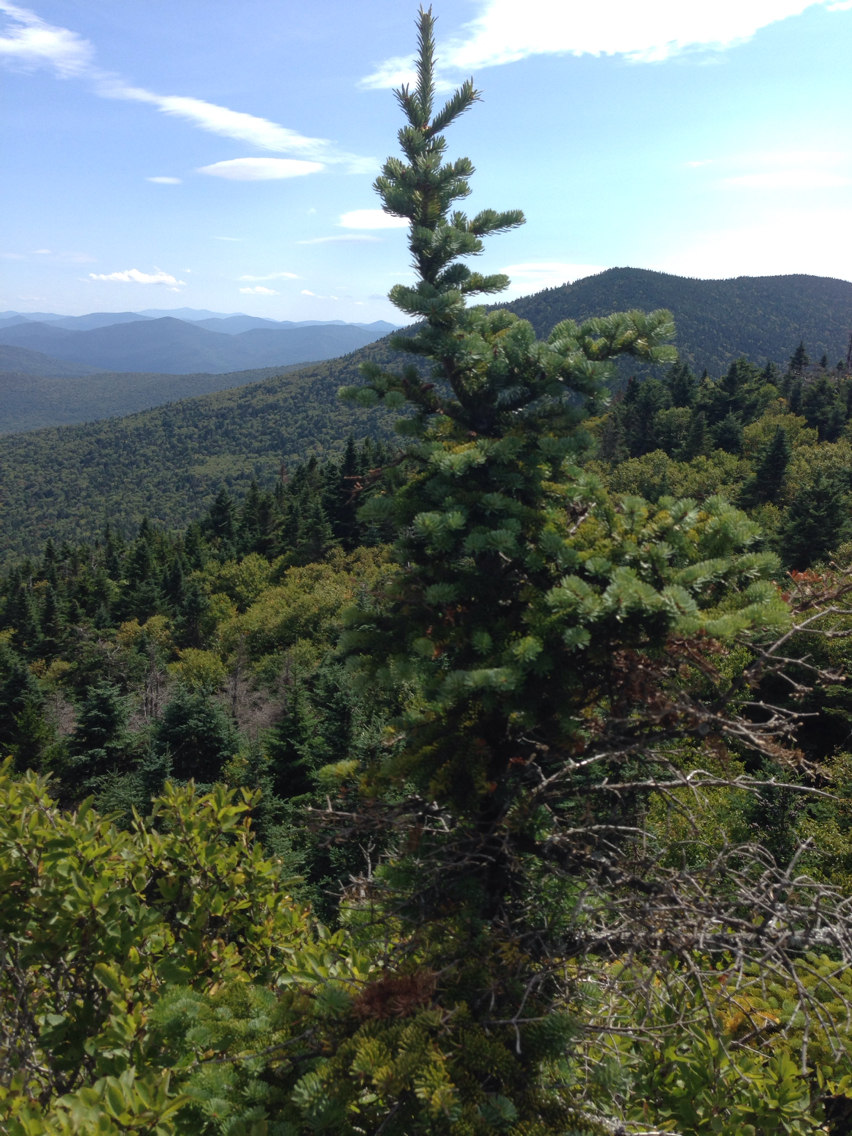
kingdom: Plantae
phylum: Tracheophyta
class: Pinopsida
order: Pinales
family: Pinaceae
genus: Abies
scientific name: Abies balsamea
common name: Balsam fir
